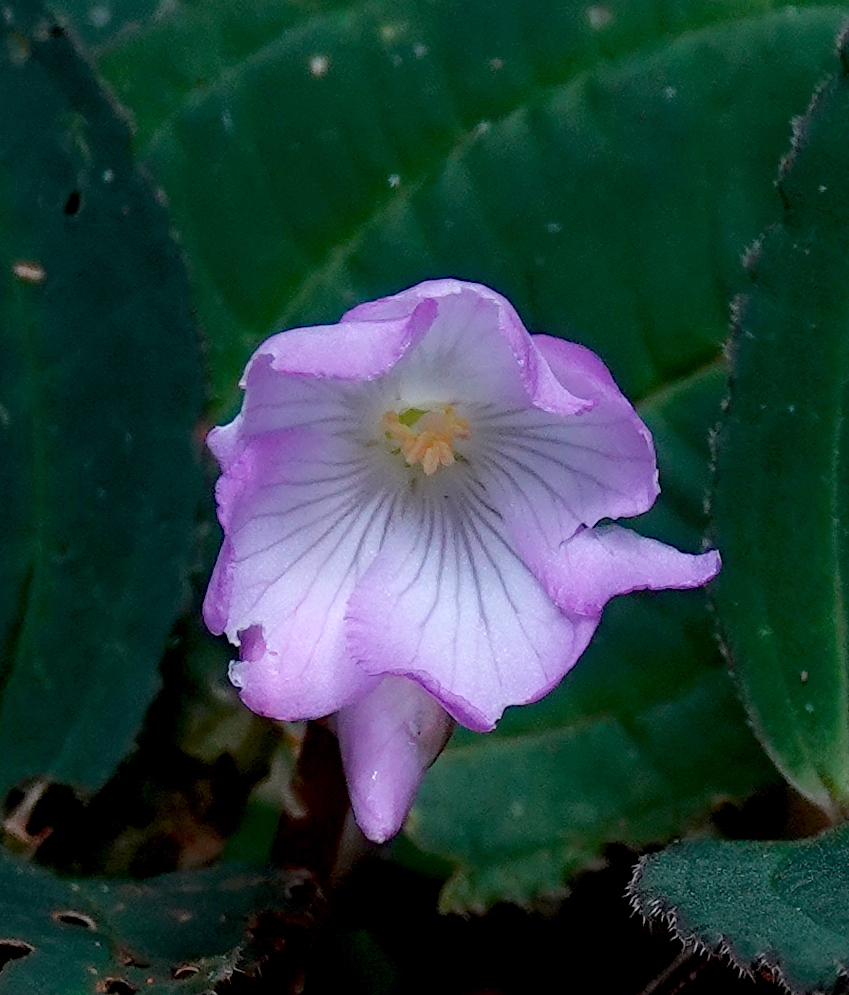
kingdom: Plantae
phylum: Tracheophyta
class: Magnoliopsida
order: Myrtales
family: Melastomataceae
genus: Monolena
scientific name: Monolena primuliflora
